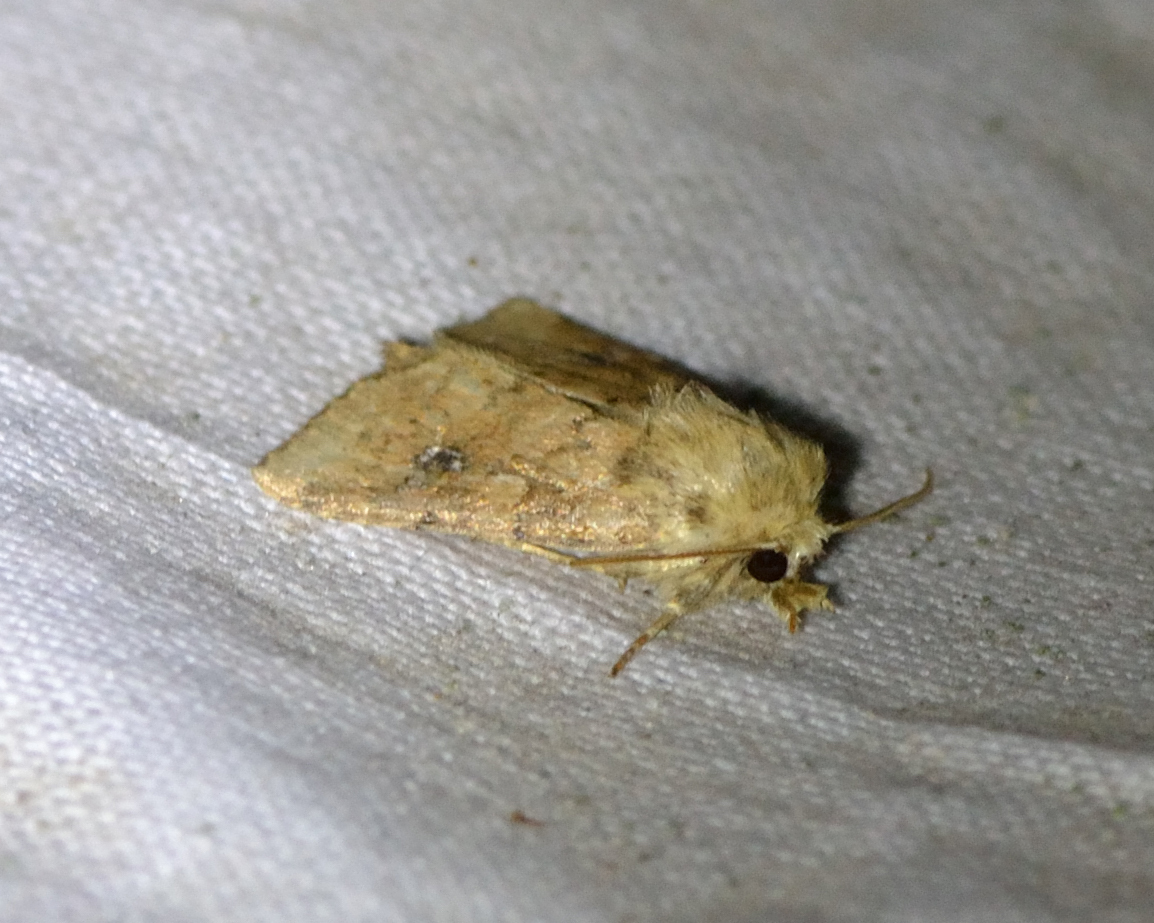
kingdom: Animalia
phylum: Arthropoda
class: Insecta
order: Lepidoptera
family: Noctuidae
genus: Atypha
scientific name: Atypha pulmonaris
